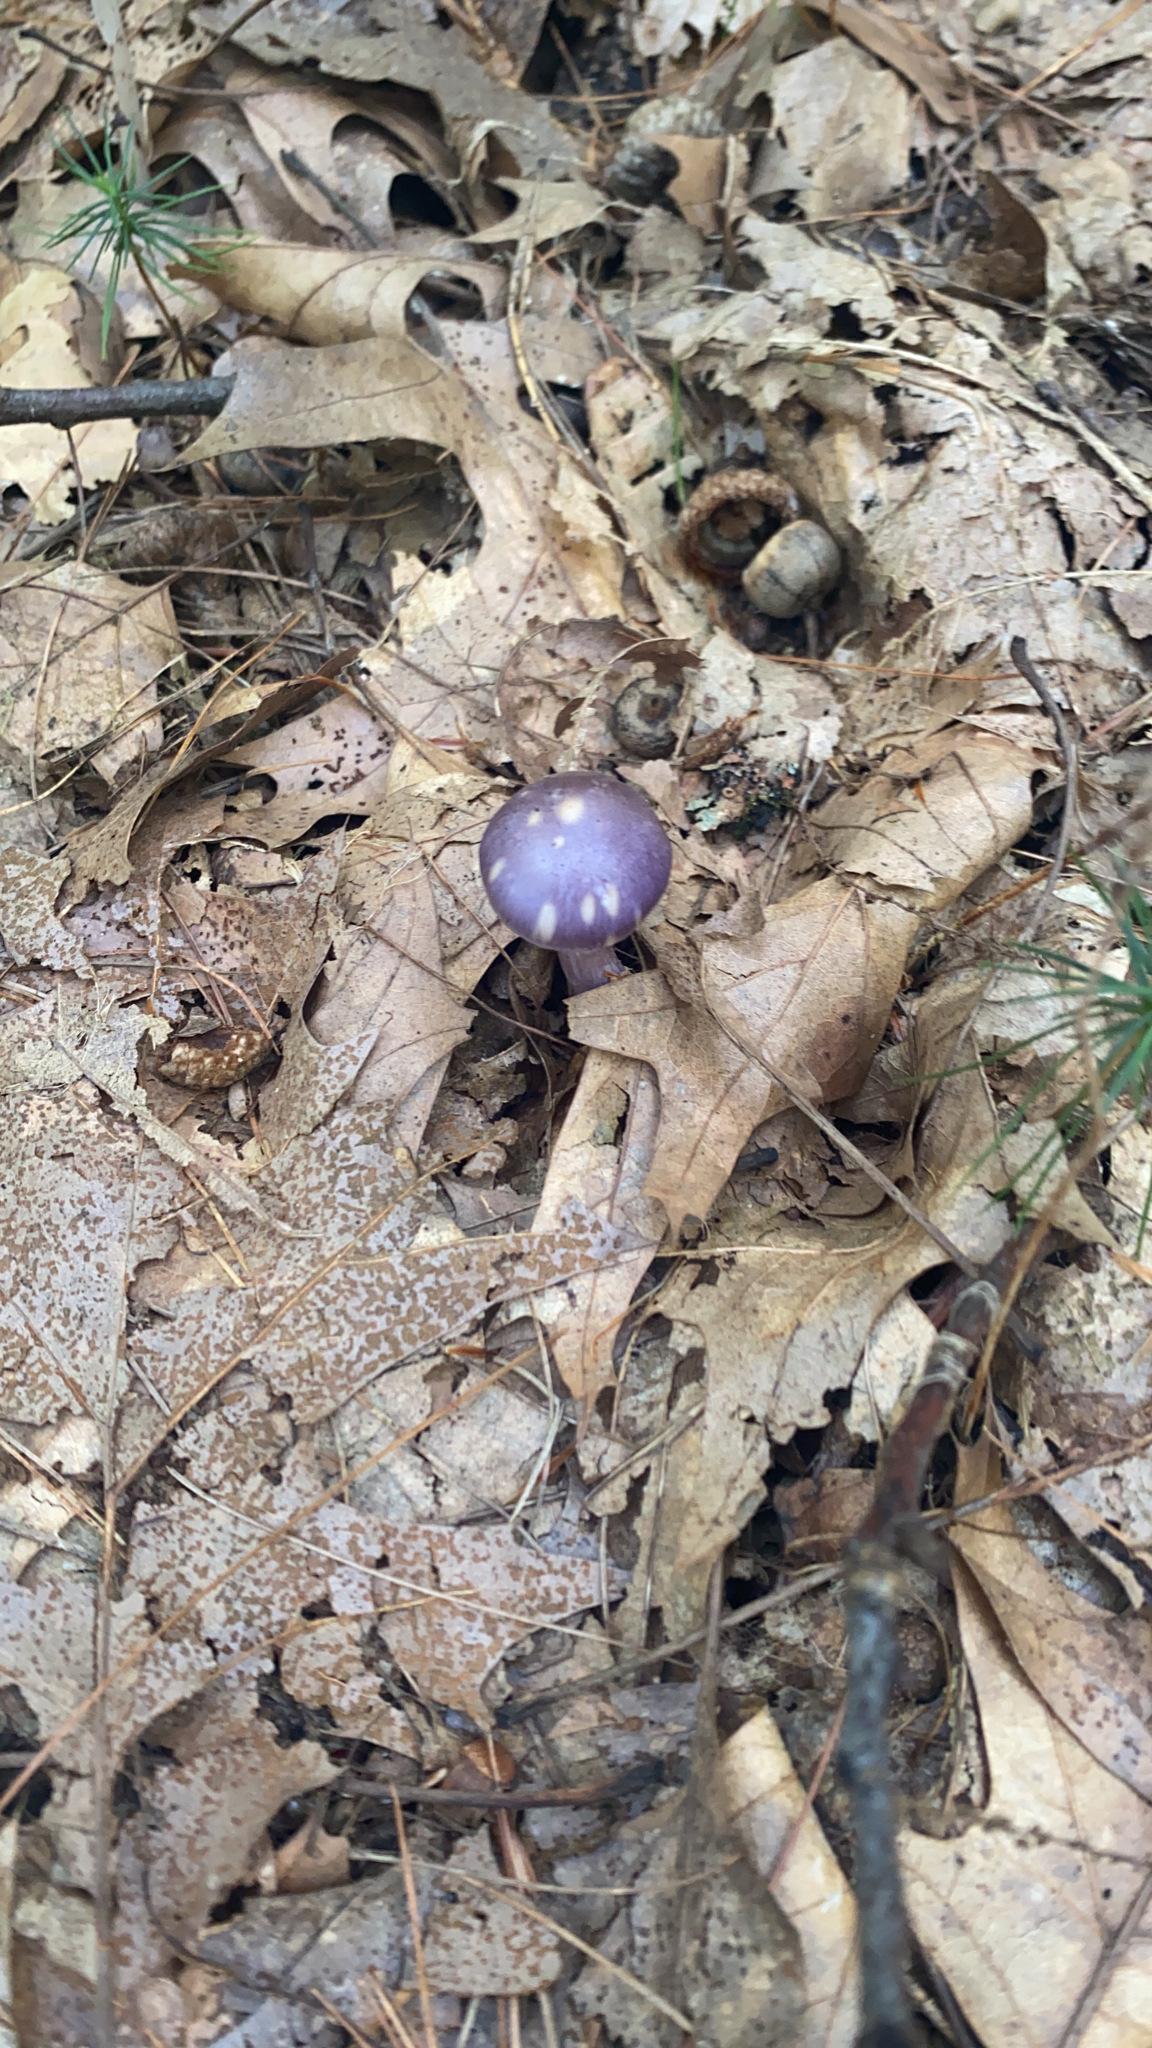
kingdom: Fungi
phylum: Basidiomycota
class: Agaricomycetes
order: Agaricales
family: Cortinariaceae
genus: Cortinarius
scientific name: Cortinarius iodes
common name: Viscid violet cort
